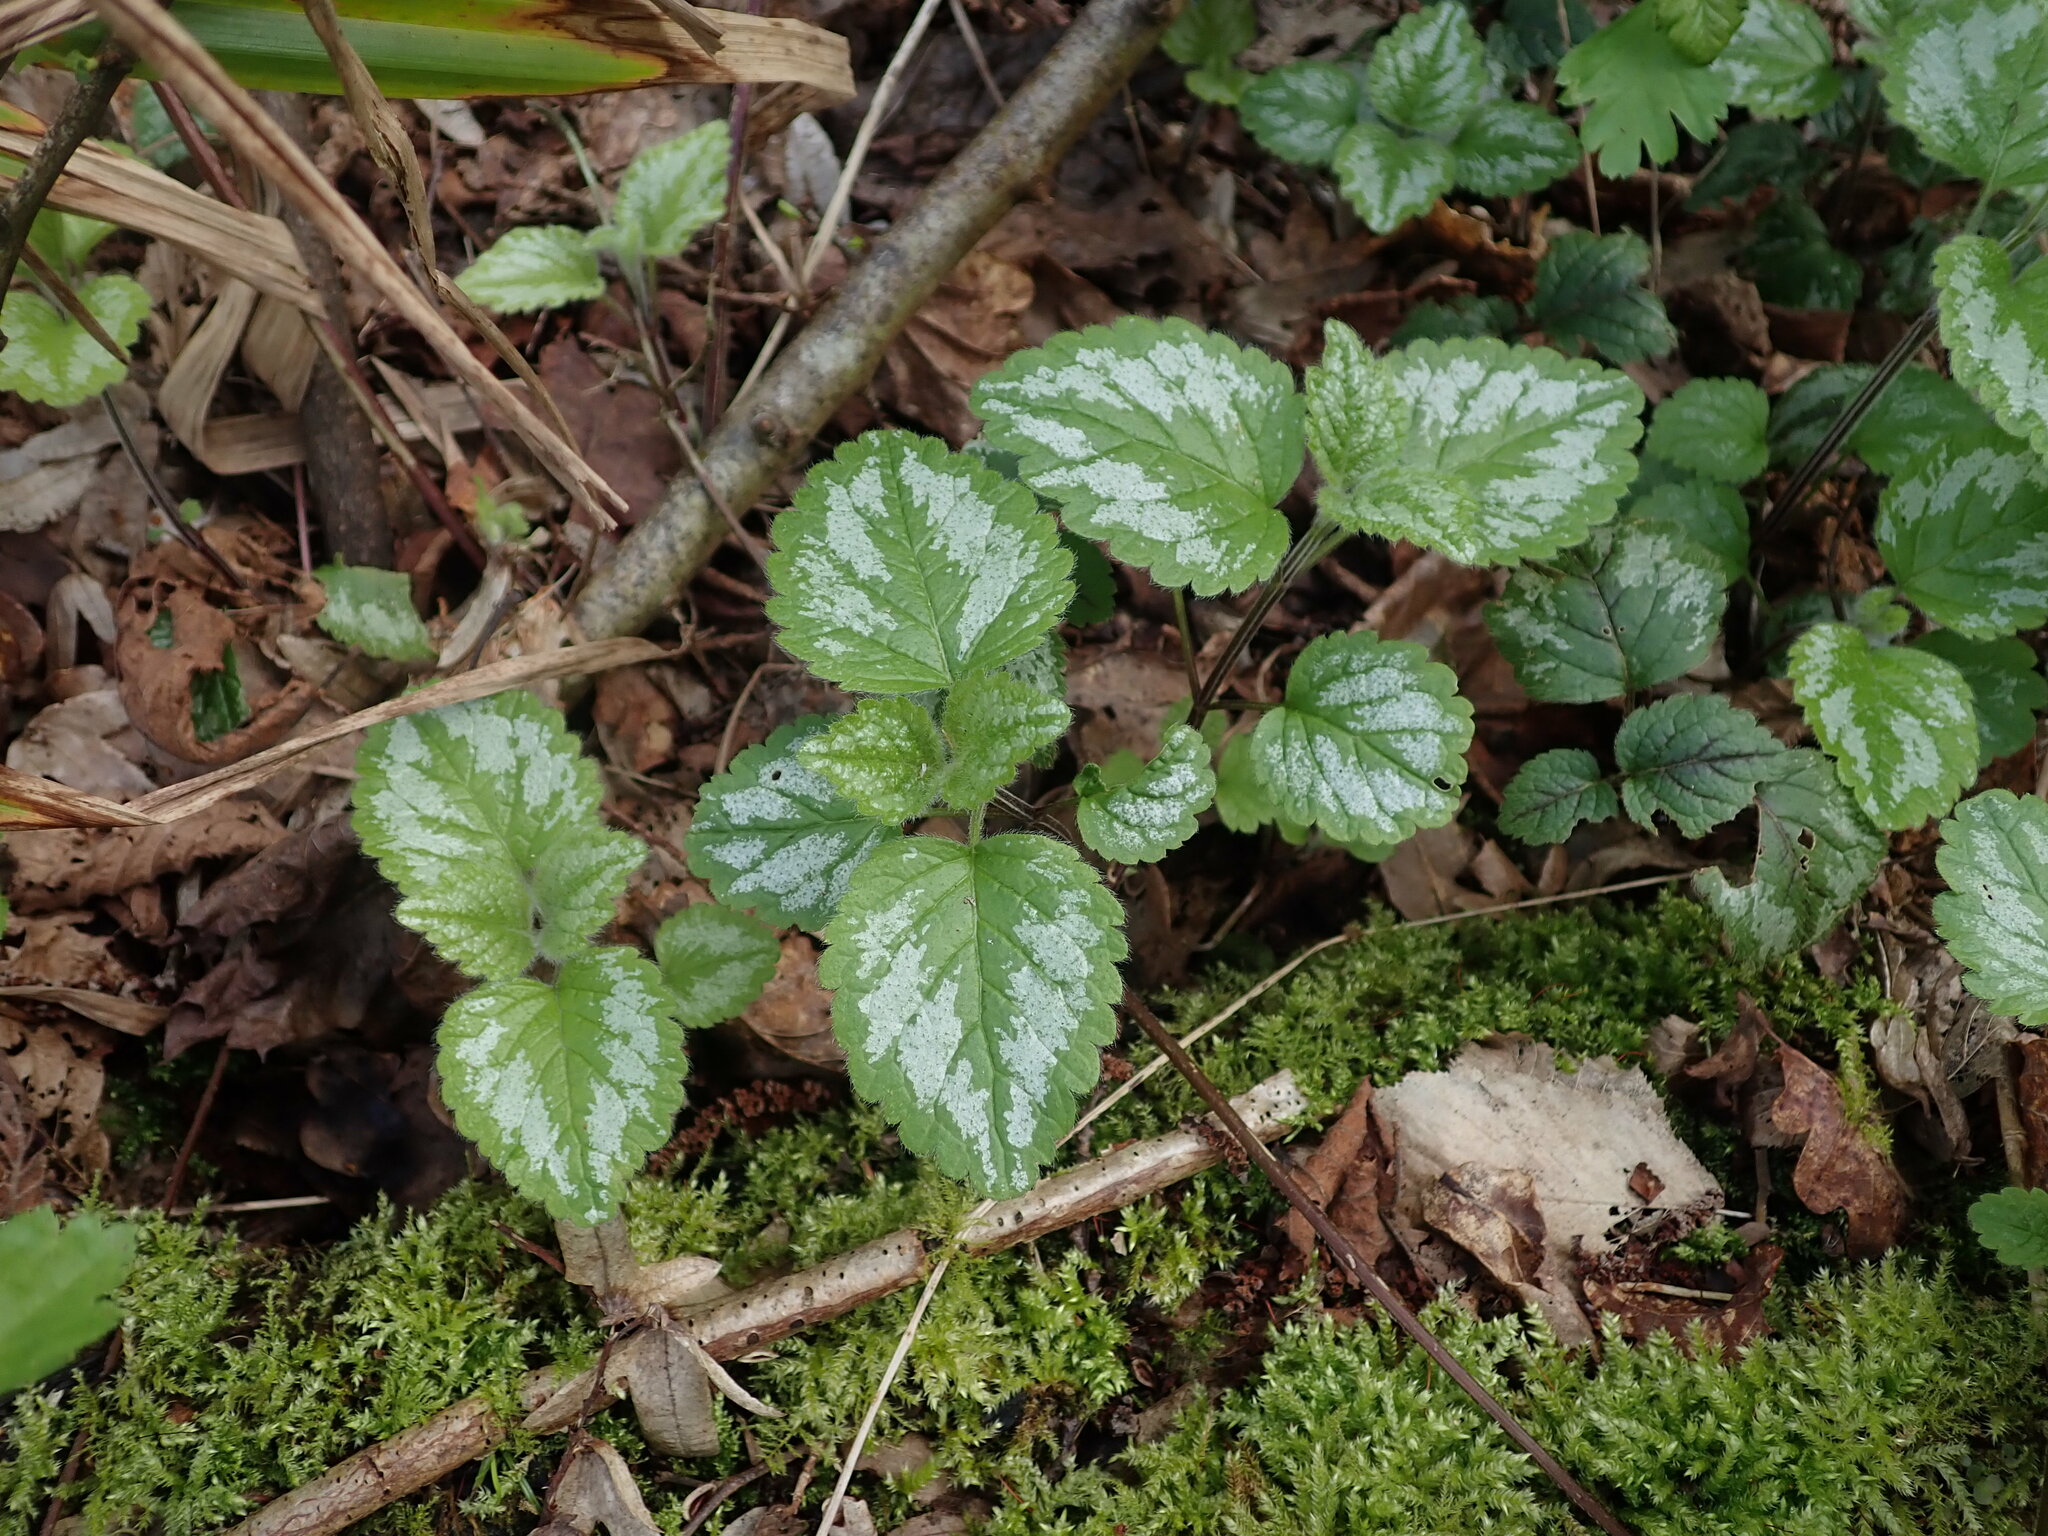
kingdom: Plantae
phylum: Tracheophyta
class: Magnoliopsida
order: Lamiales
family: Lamiaceae
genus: Lamium
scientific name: Lamium galeobdolon
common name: Yellow archangel
